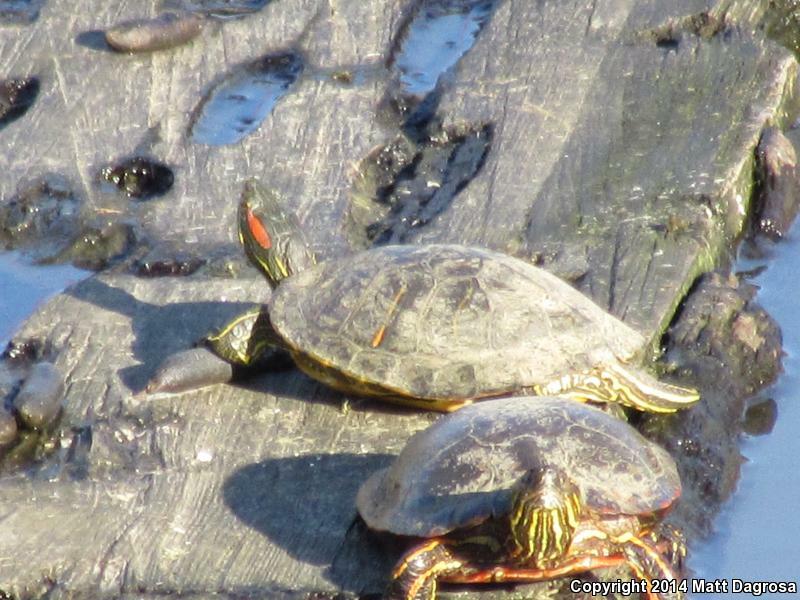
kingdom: Animalia
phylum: Chordata
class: Testudines
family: Emydidae
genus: Chrysemys
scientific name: Chrysemys picta
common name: Painted turtle
